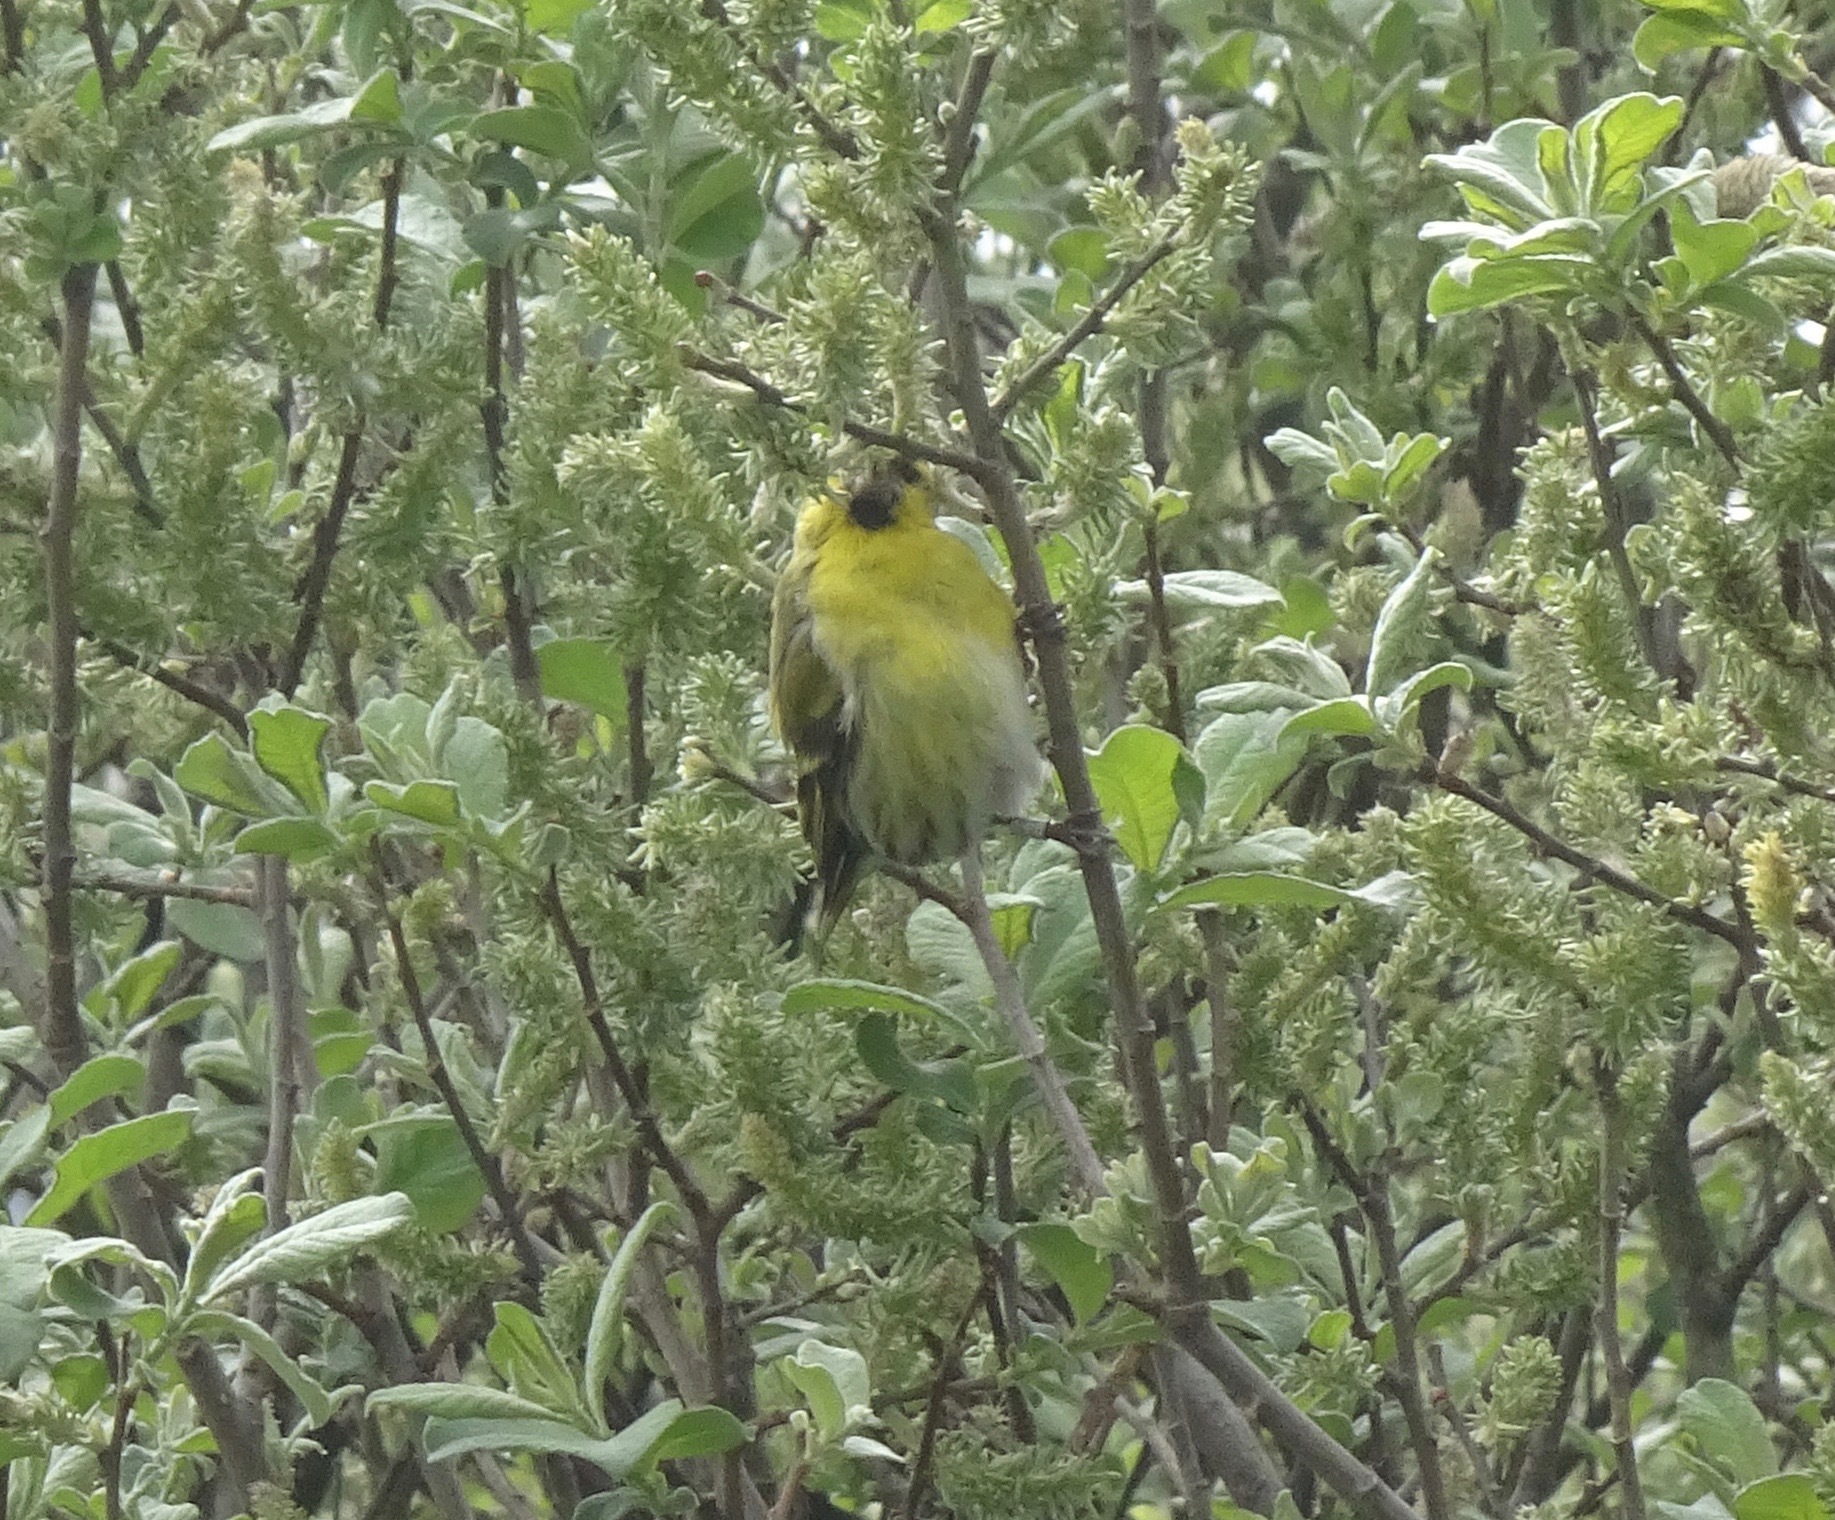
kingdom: Animalia
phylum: Chordata
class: Aves
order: Passeriformes
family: Fringillidae
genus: Spinus
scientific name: Spinus spinus
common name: Eurasian siskin
